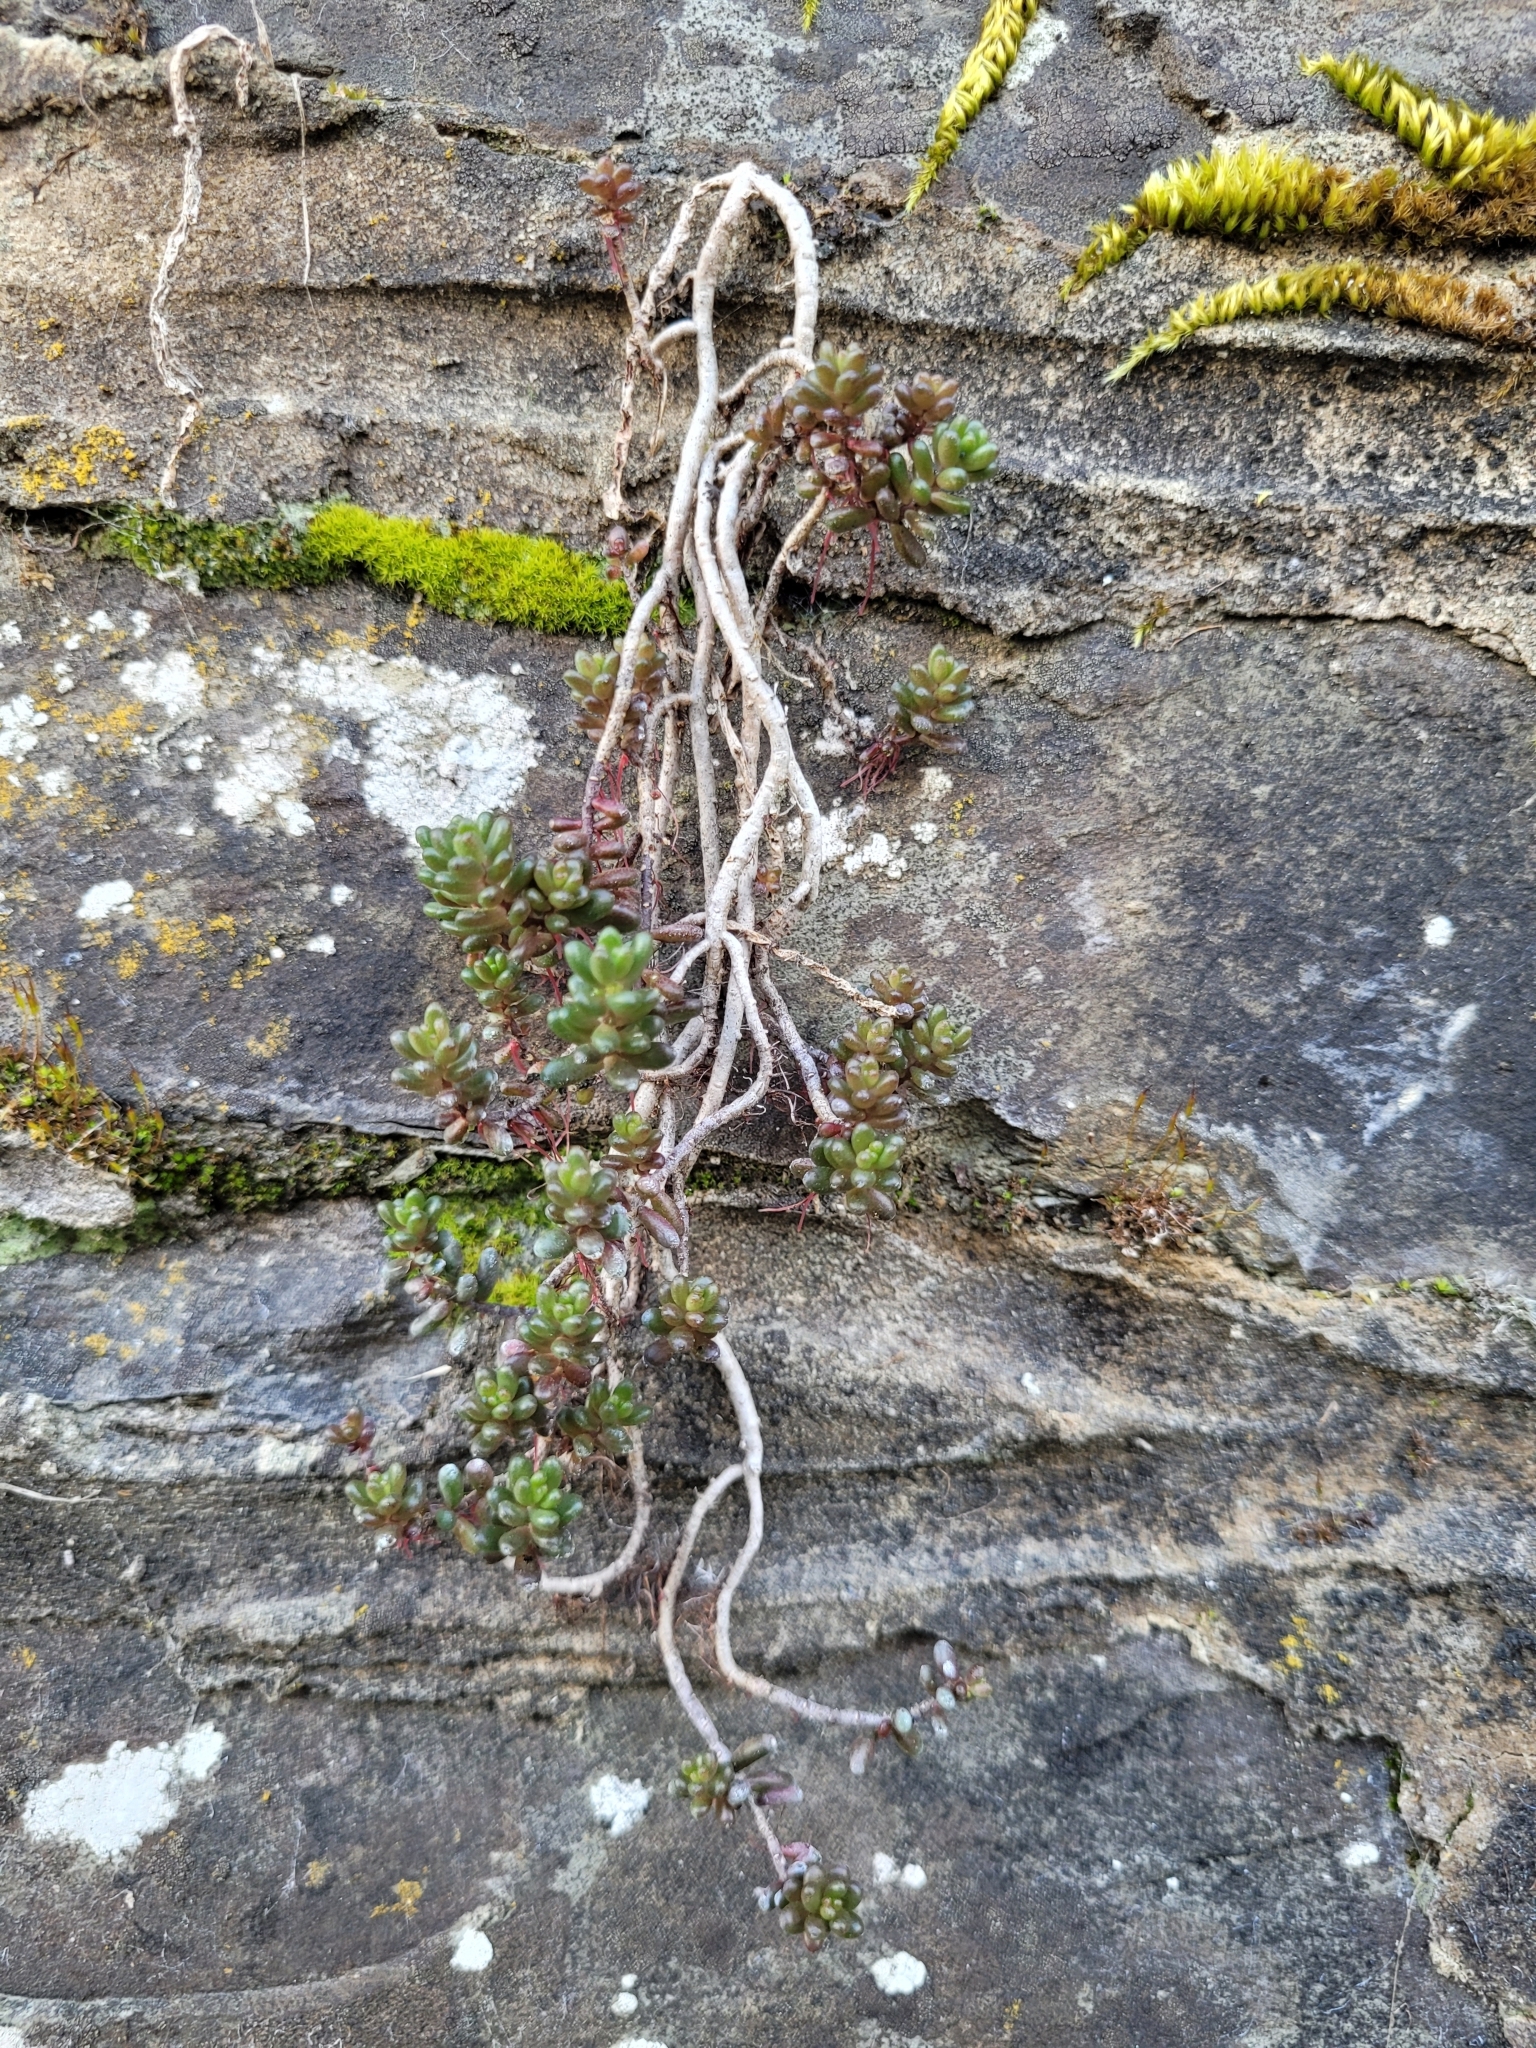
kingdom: Plantae
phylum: Tracheophyta
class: Magnoliopsida
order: Saxifragales
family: Crassulaceae
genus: Sedum
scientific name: Sedum album
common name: White stonecrop
